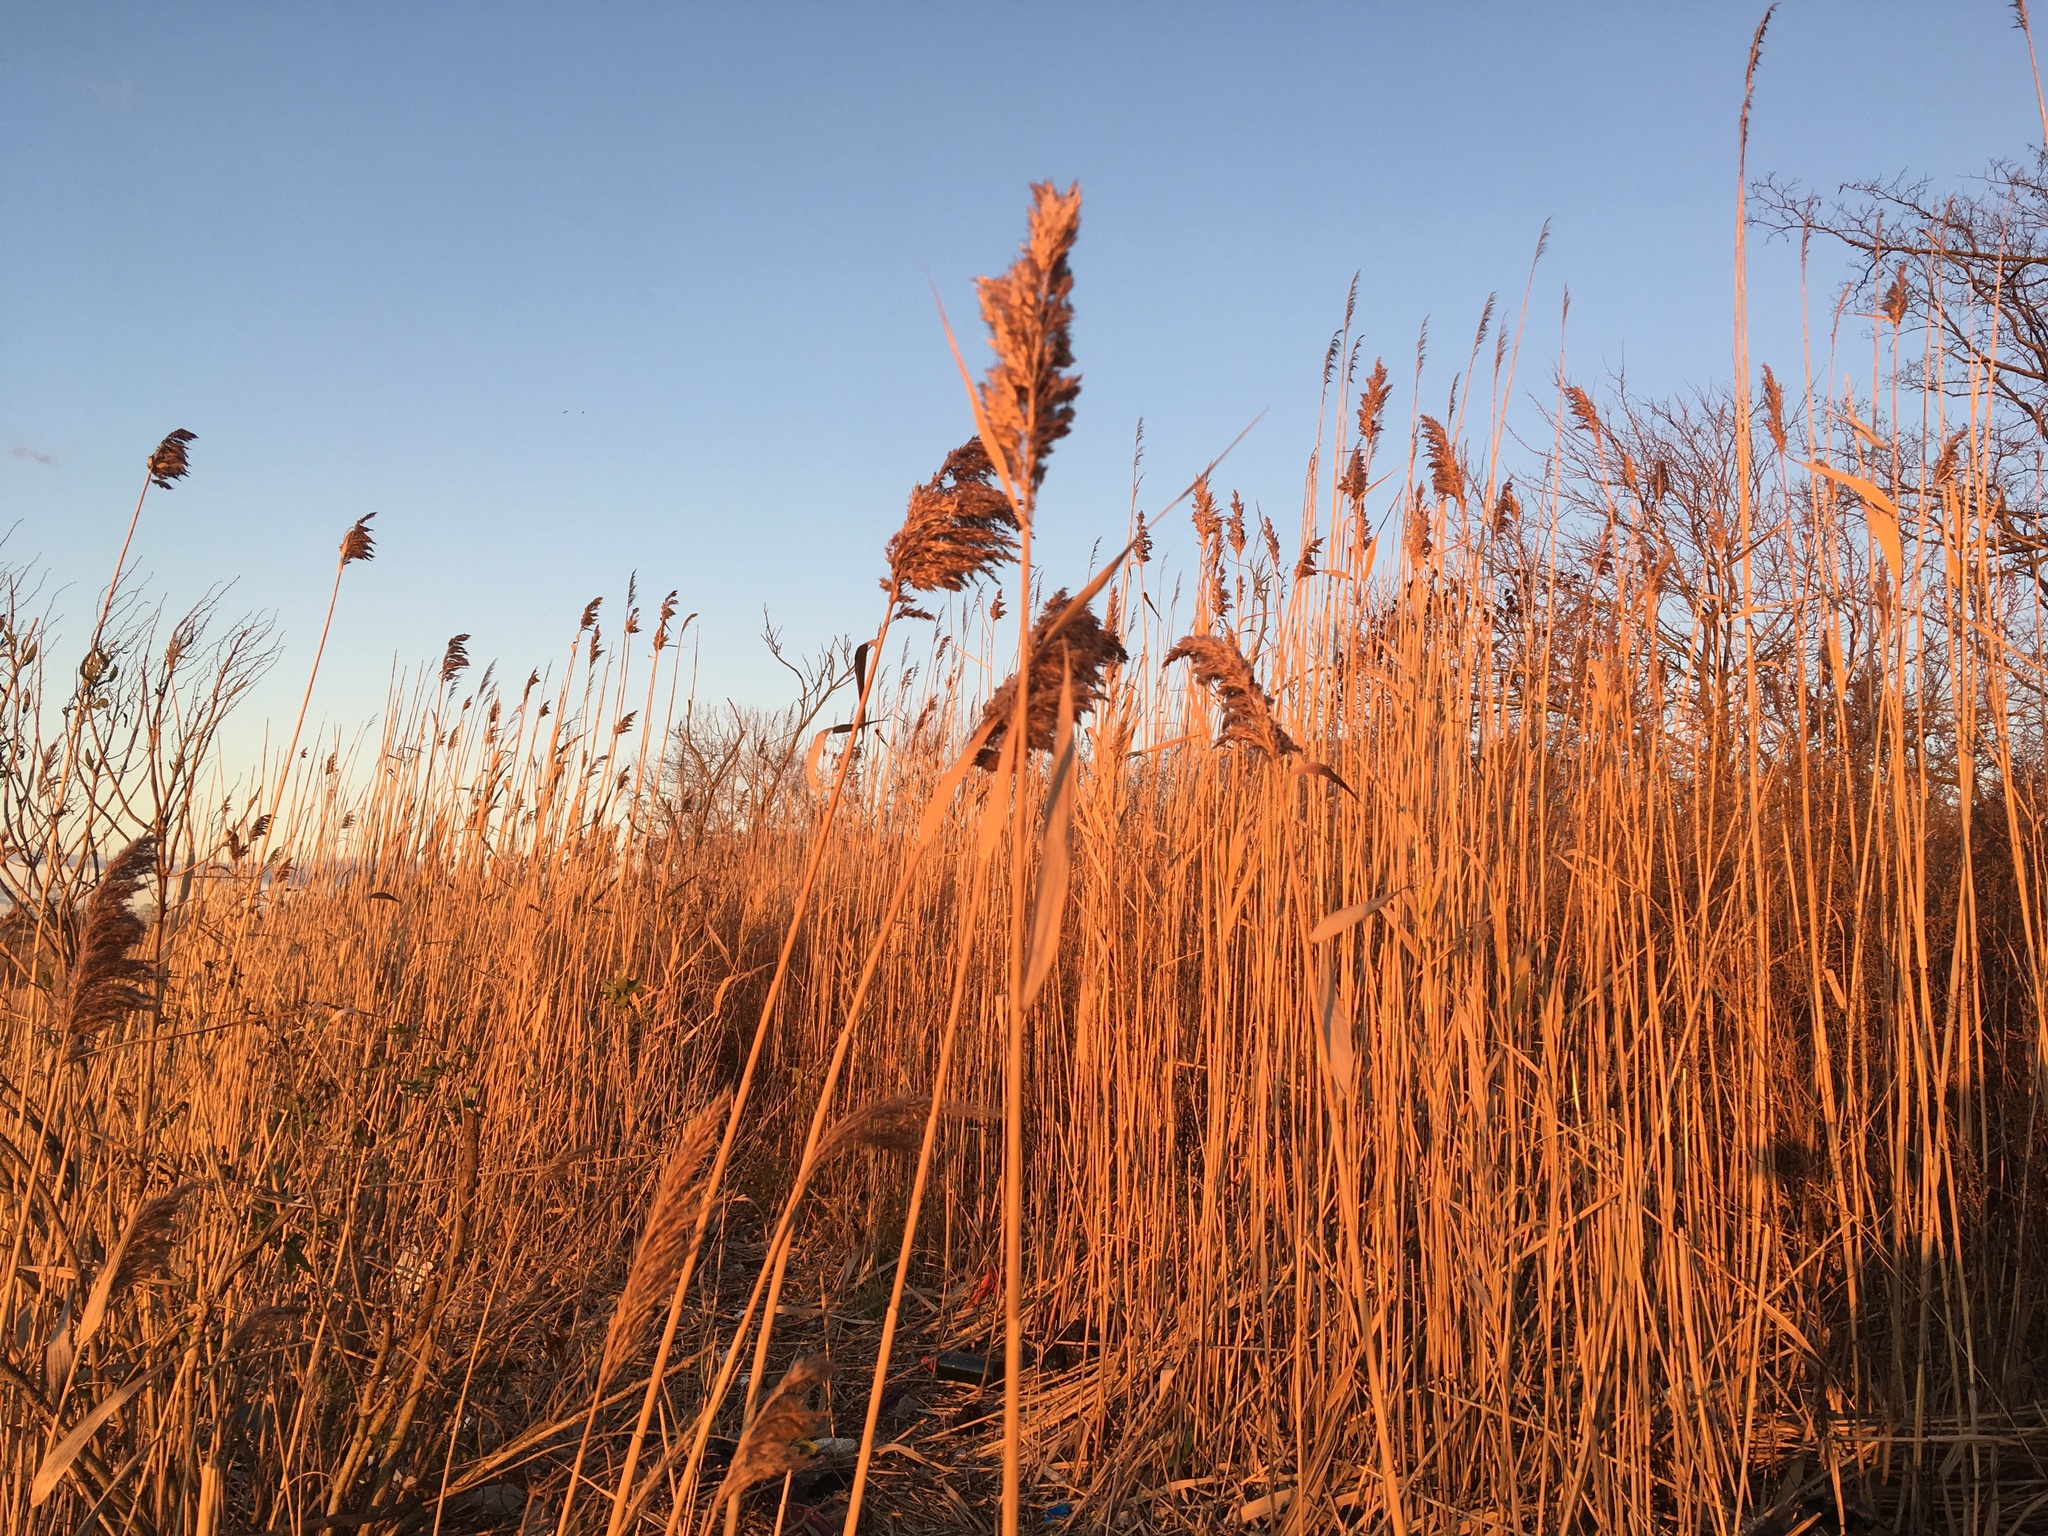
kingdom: Plantae
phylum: Tracheophyta
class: Liliopsida
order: Poales
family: Poaceae
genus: Phragmites
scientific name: Phragmites australis
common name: Common reed
